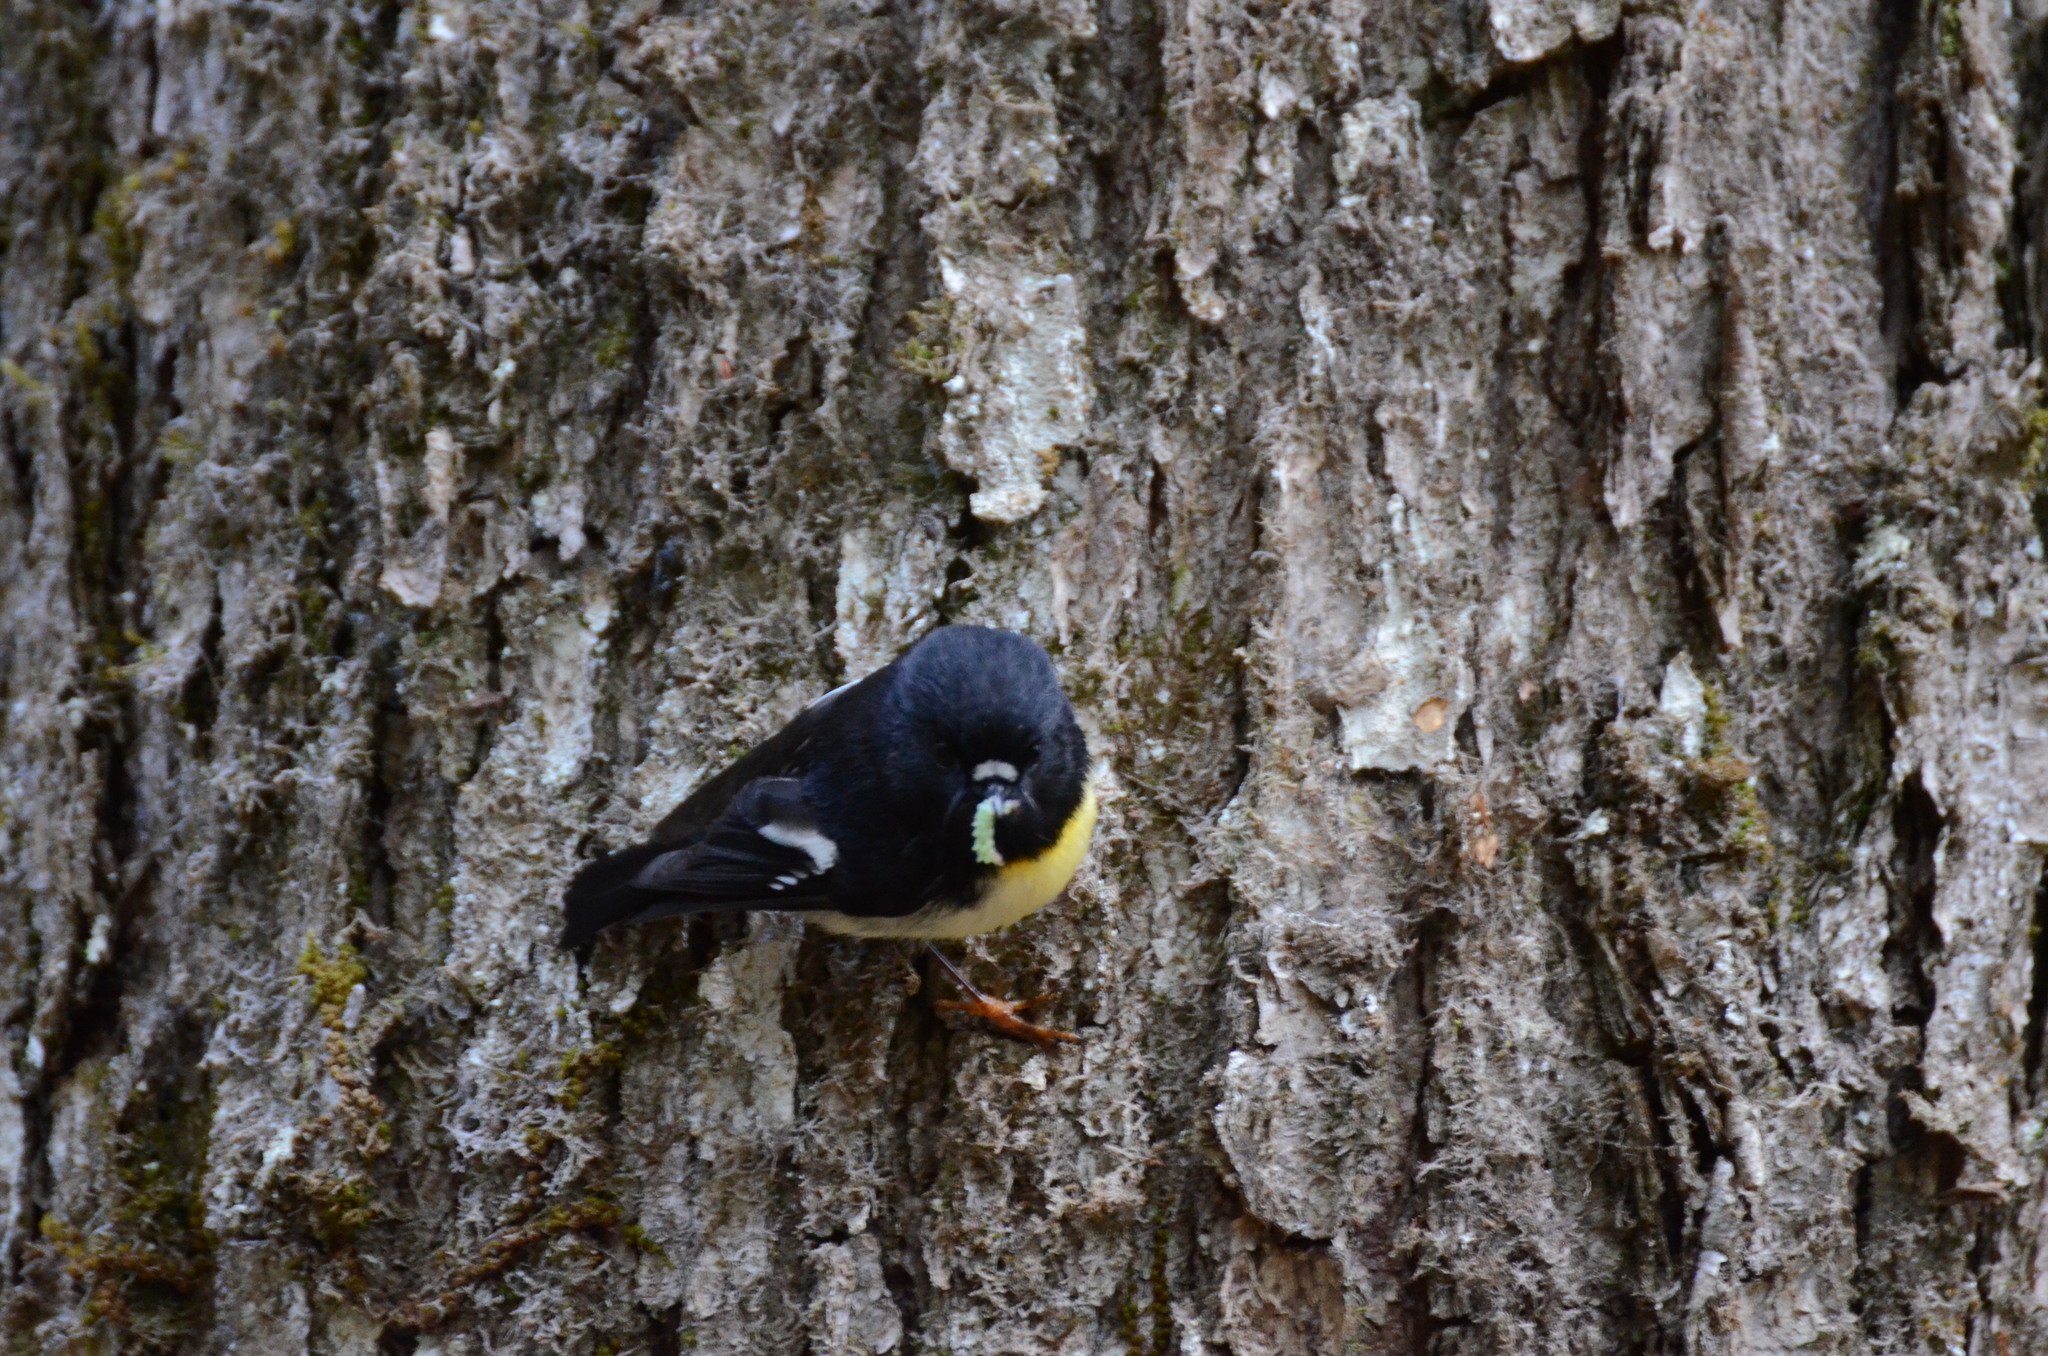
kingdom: Animalia
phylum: Chordata
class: Aves
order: Passeriformes
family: Petroicidae
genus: Petroica
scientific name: Petroica macrocephala
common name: Tomtit
